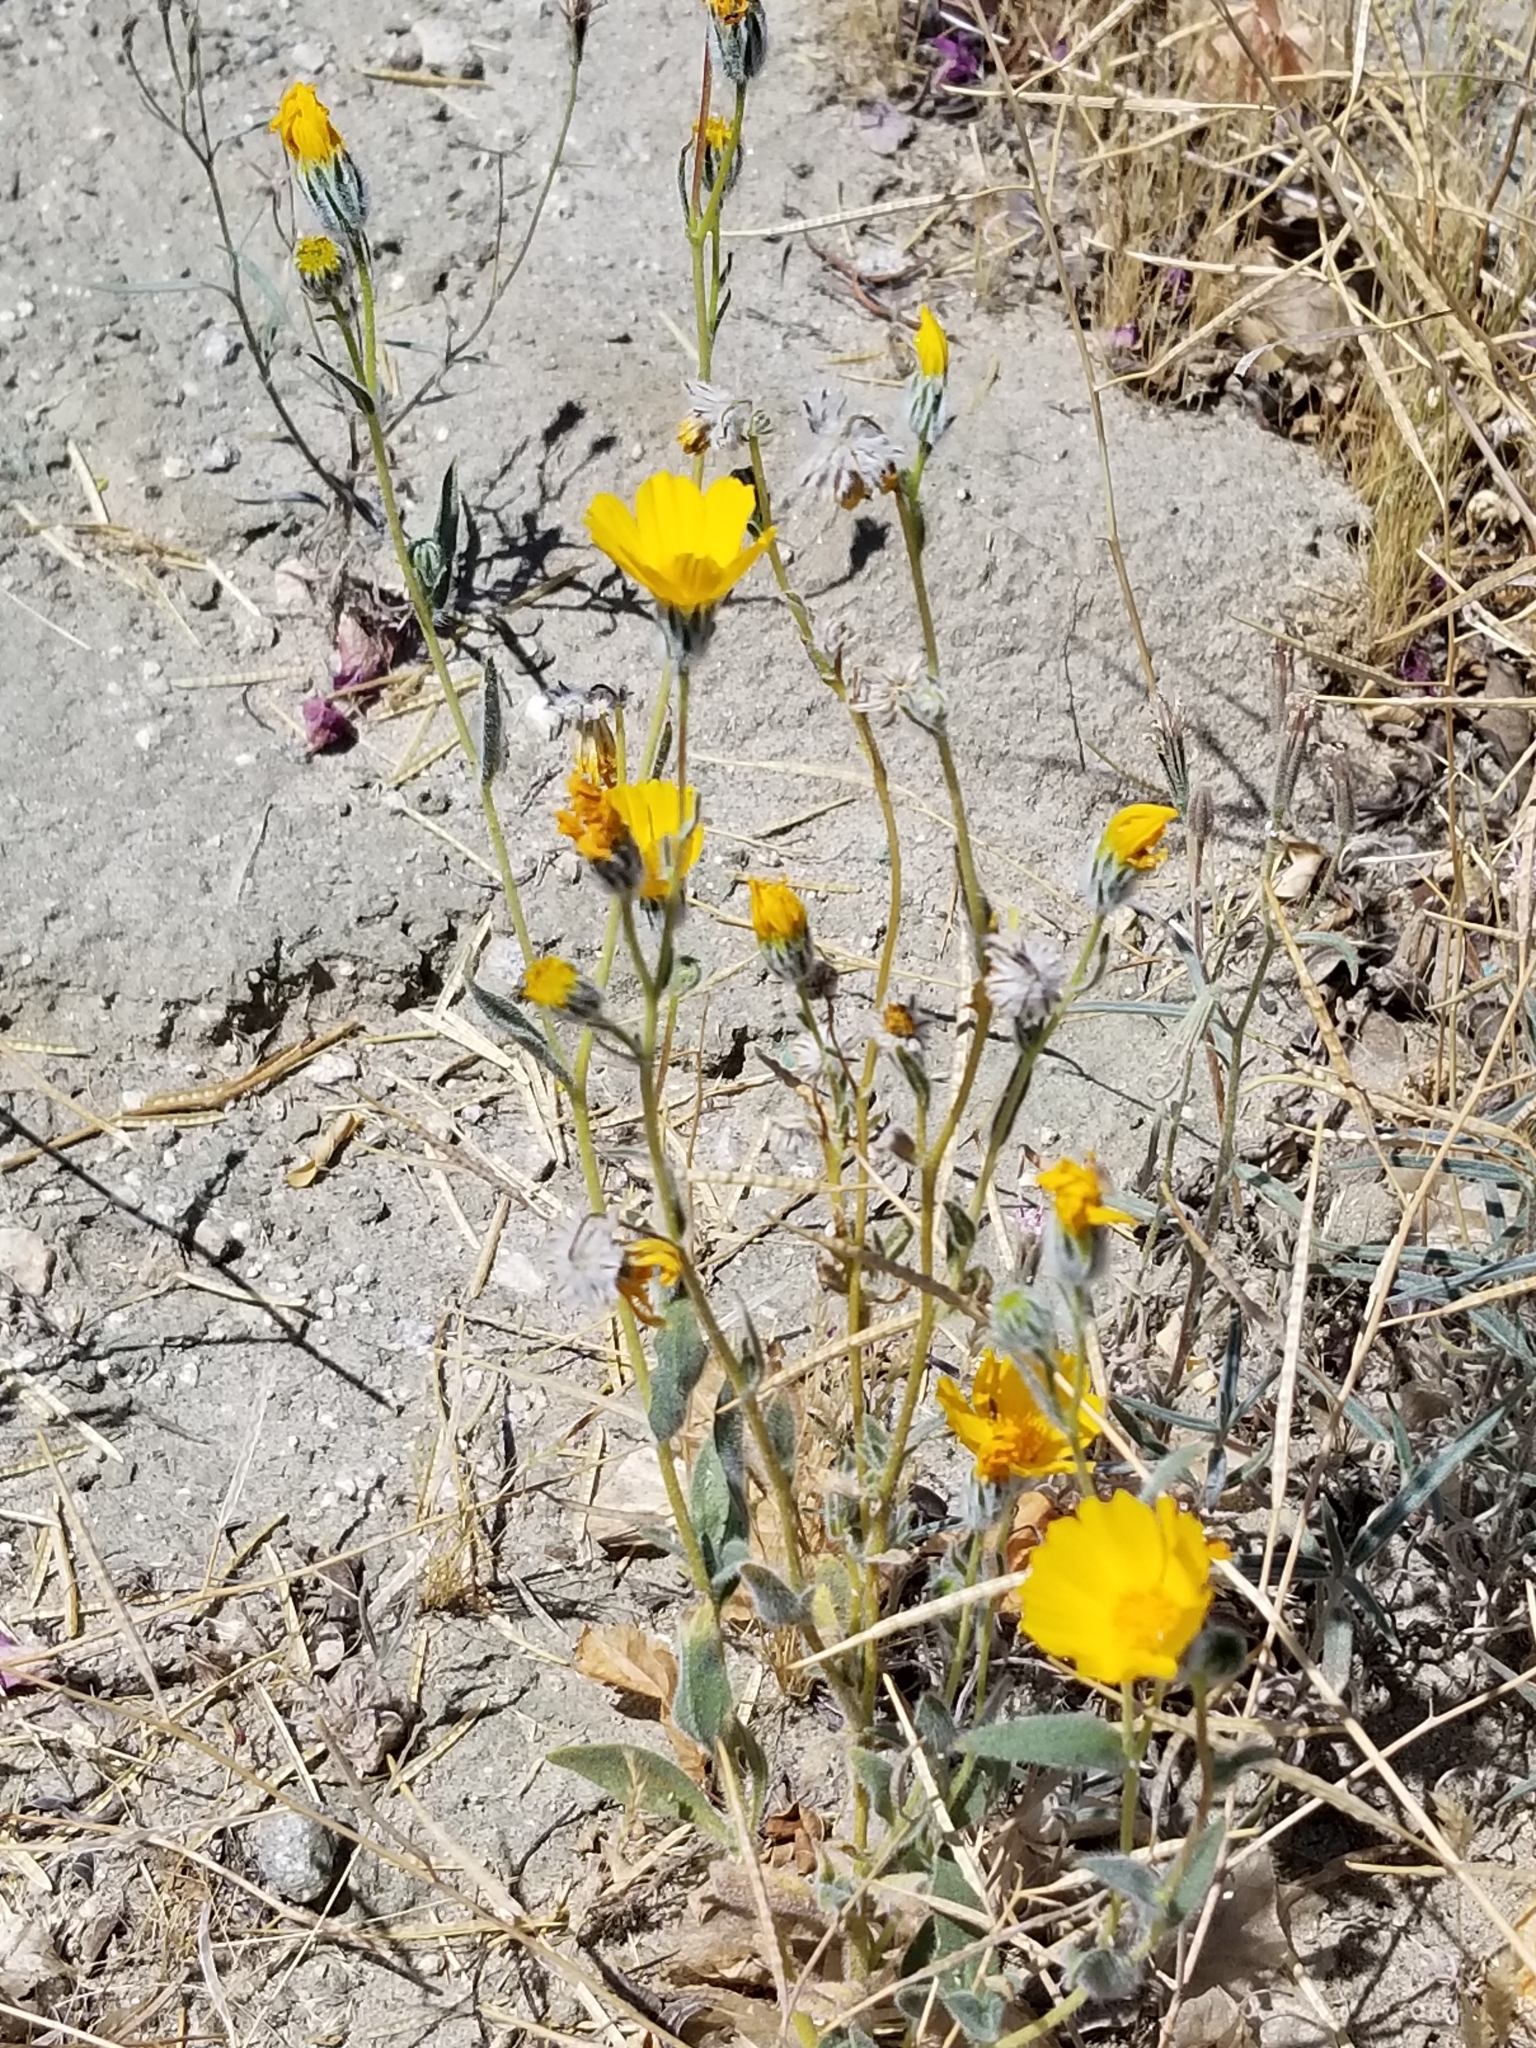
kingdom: Plantae
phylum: Tracheophyta
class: Magnoliopsida
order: Asterales
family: Asteraceae
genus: Geraea
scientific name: Geraea canescens
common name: Desert-gold
